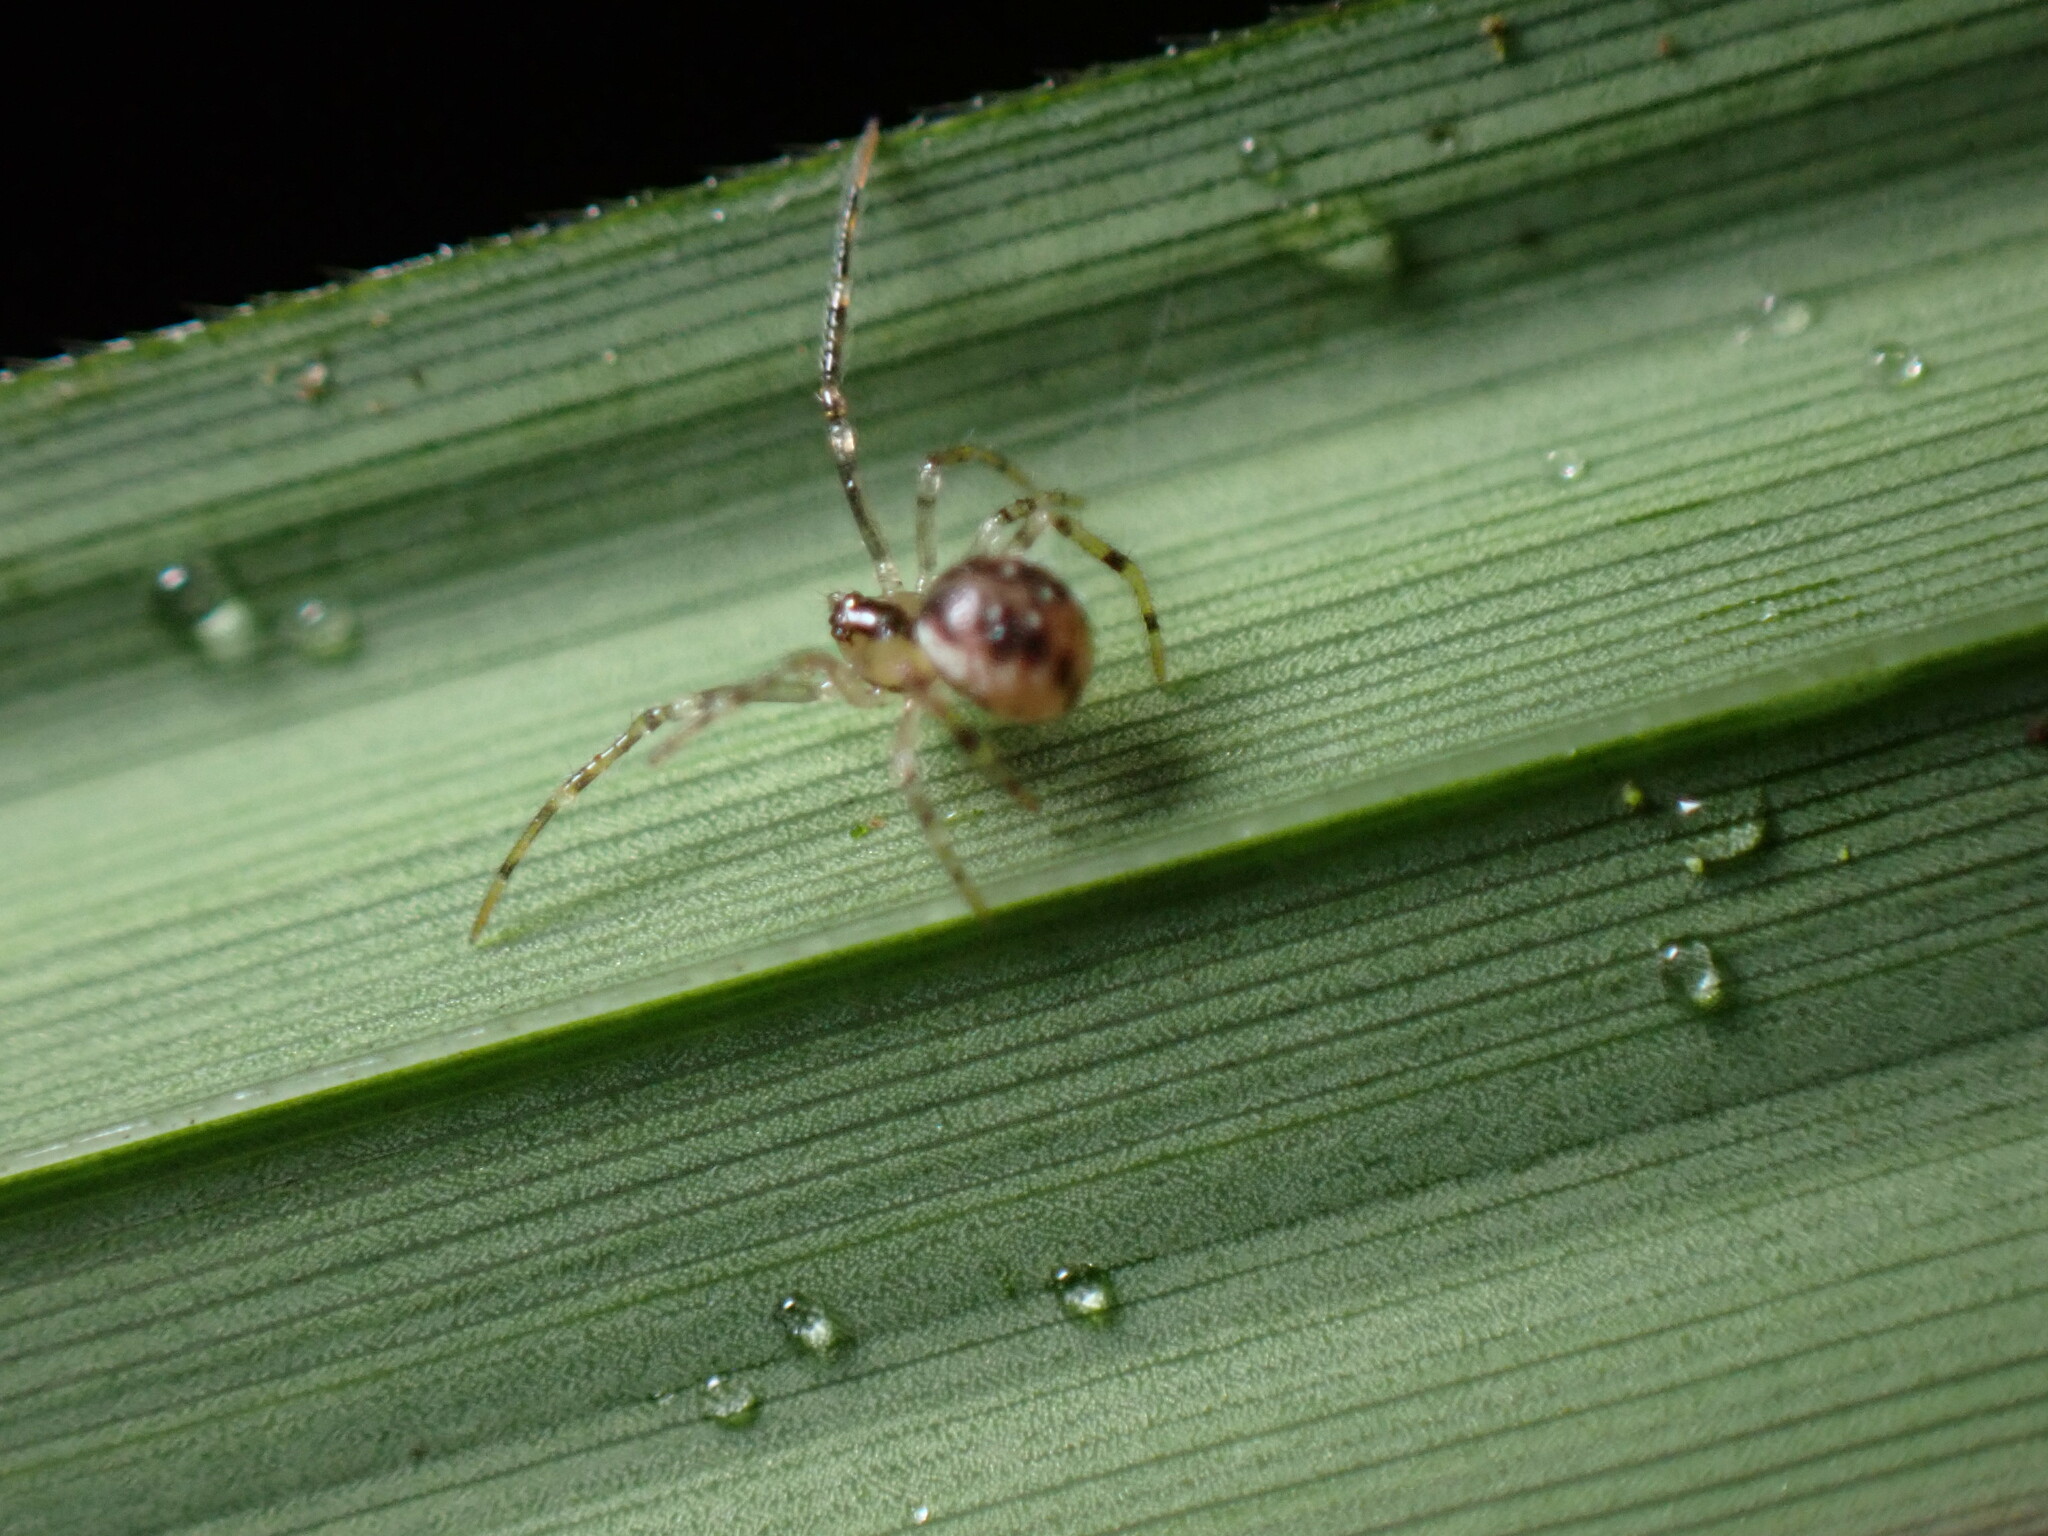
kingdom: Animalia
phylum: Arthropoda
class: Arachnida
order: Araneae
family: Theridiidae
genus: Rugathodes
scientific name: Rugathodes sexpunctatus
